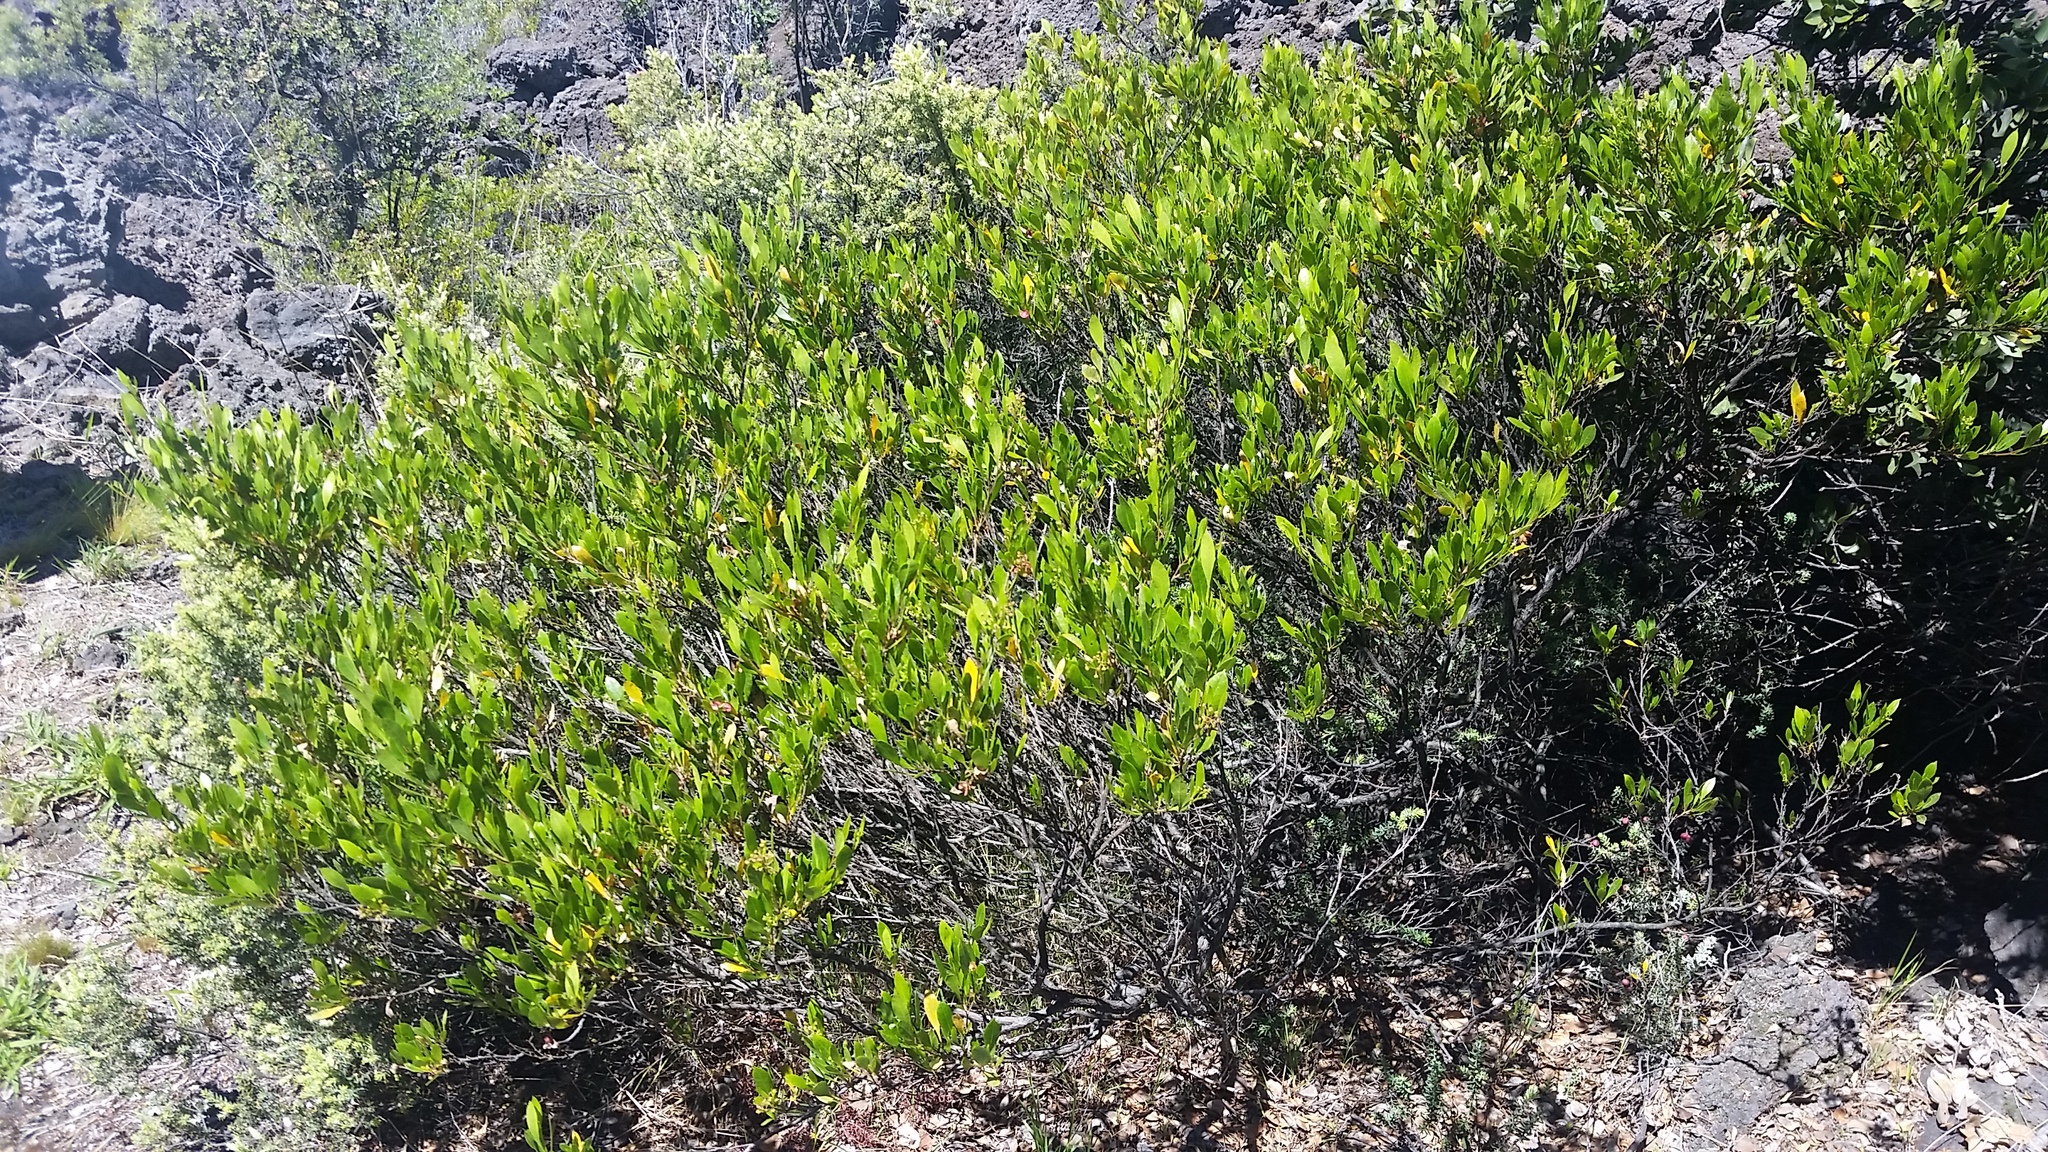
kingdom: Plantae
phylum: Tracheophyta
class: Magnoliopsida
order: Sapindales
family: Sapindaceae
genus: Dodonaea
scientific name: Dodonaea viscosa
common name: Hopbush
